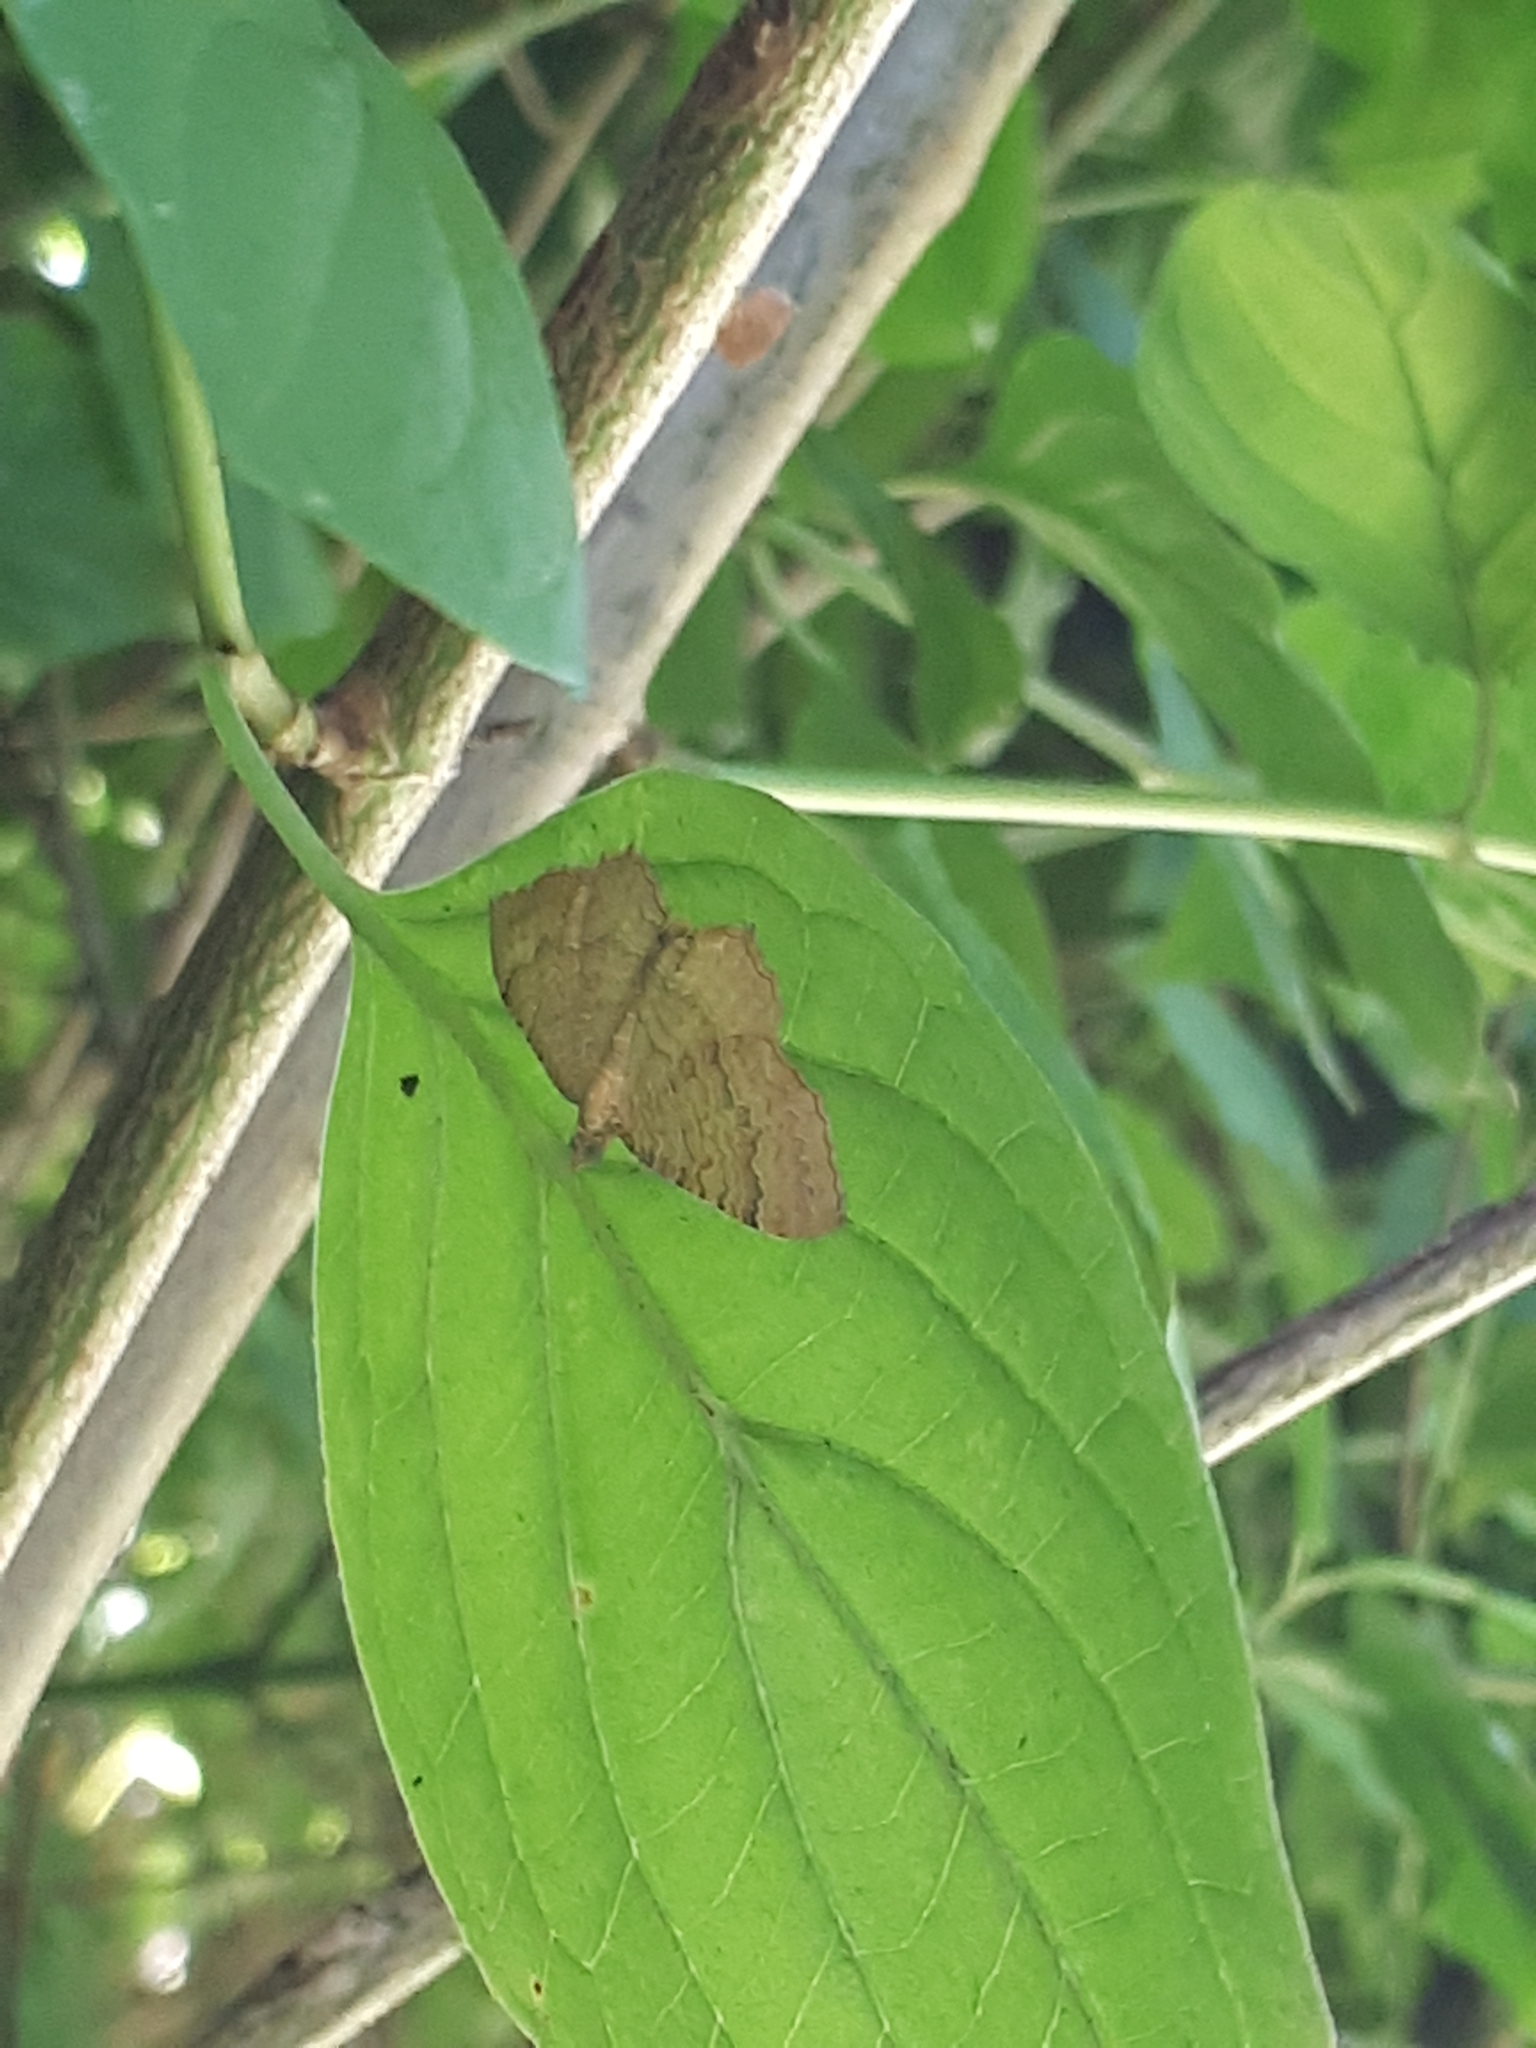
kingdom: Animalia
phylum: Arthropoda
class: Insecta
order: Lepidoptera
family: Geometridae
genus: Camptogramma
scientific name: Camptogramma bilineata
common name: Yellow shell
